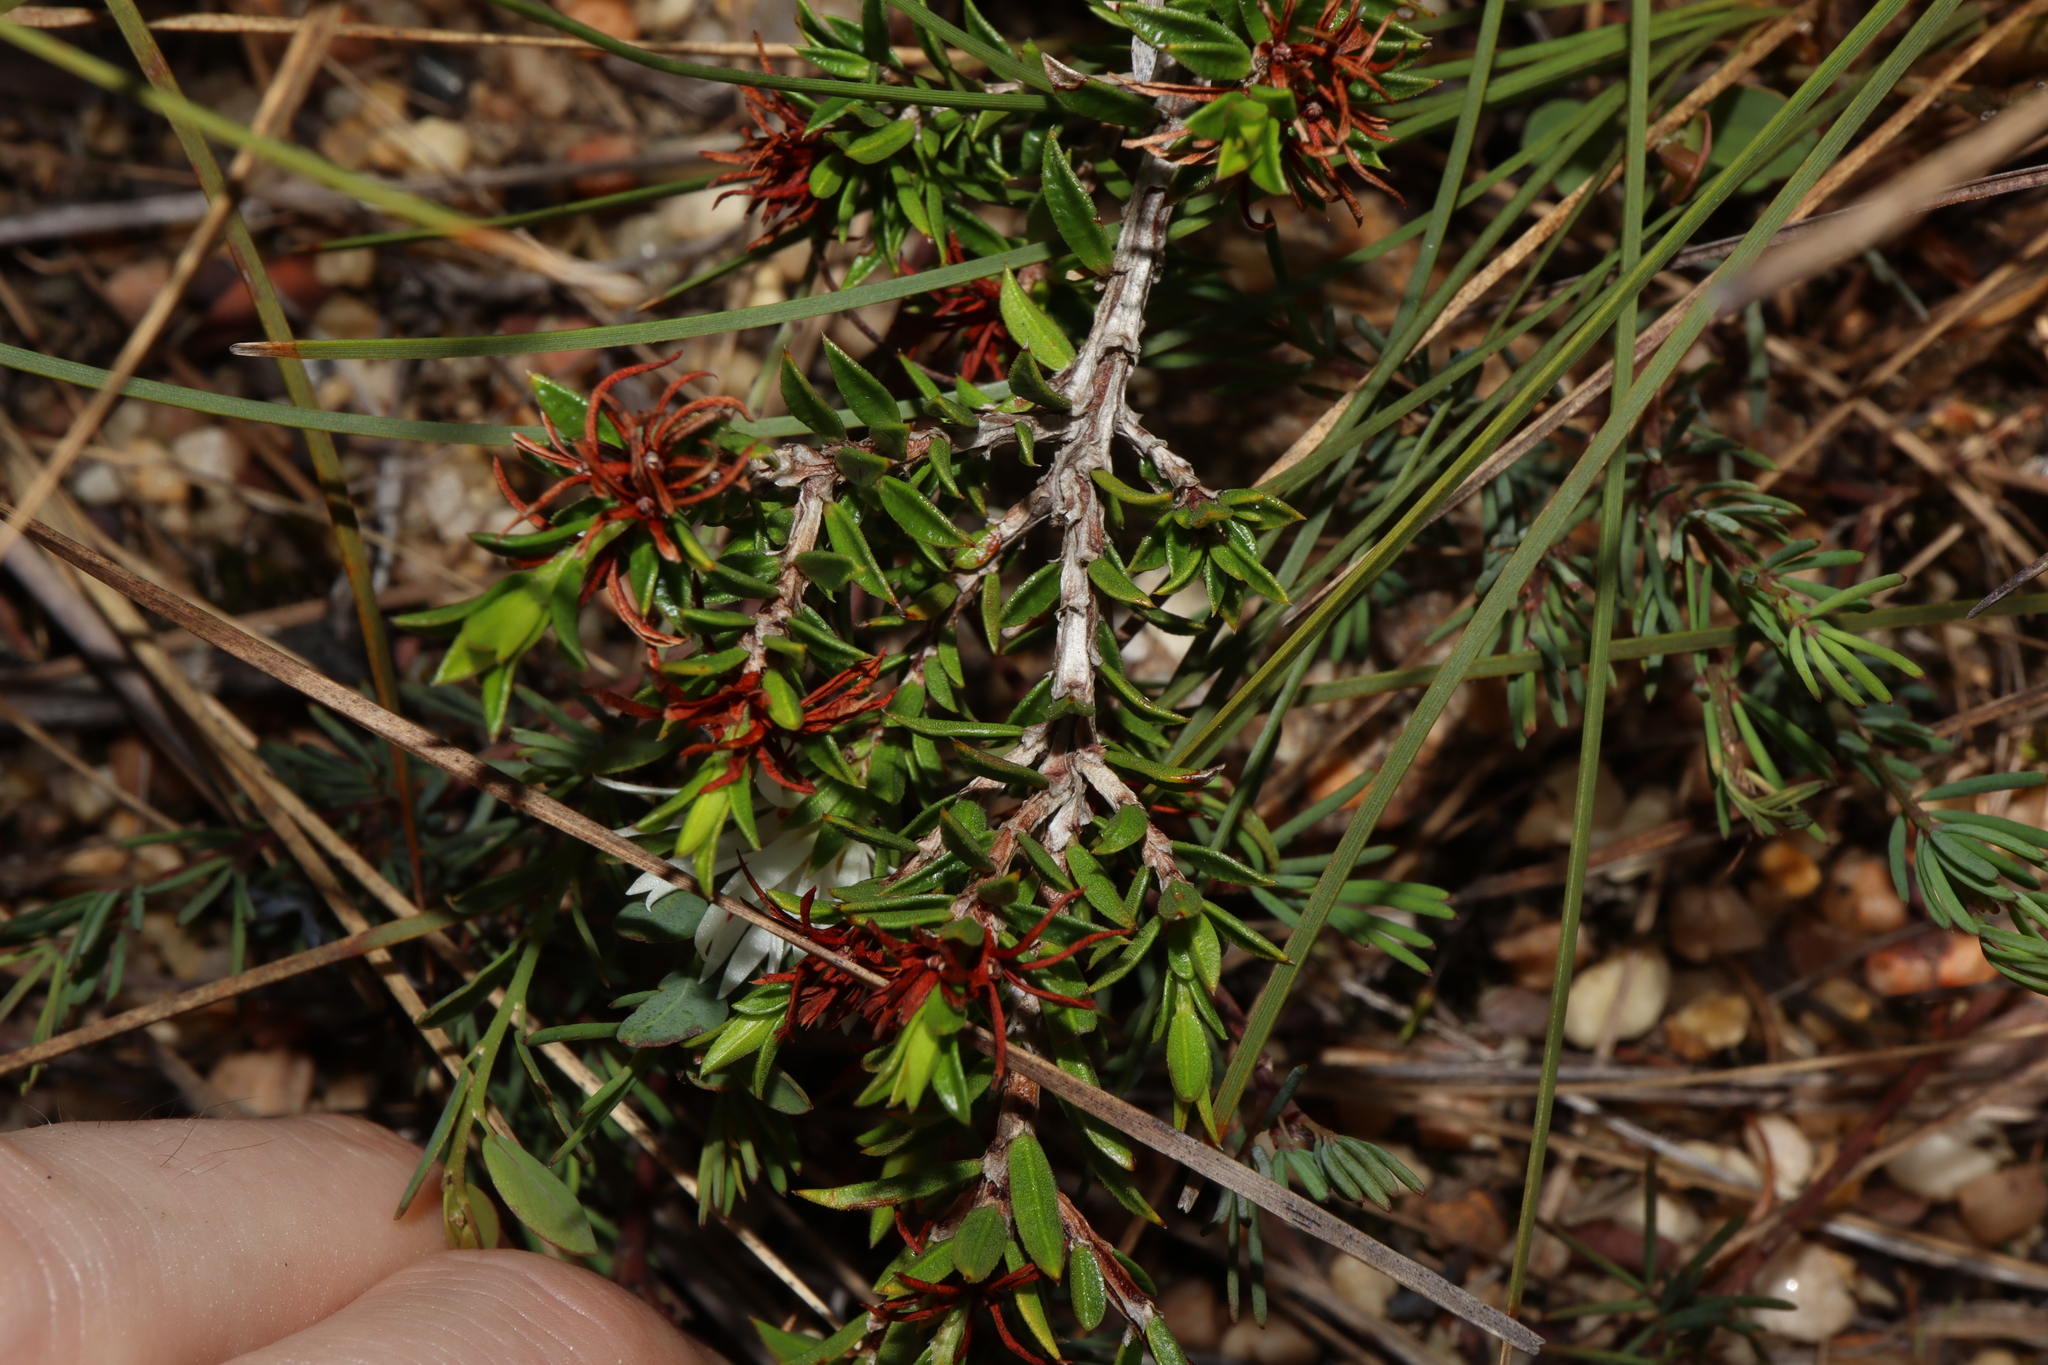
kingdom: Plantae
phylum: Tracheophyta
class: Magnoliopsida
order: Malpighiales
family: Picrodendraceae
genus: Pseudanthus
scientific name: Pseudanthus pimeleoides
